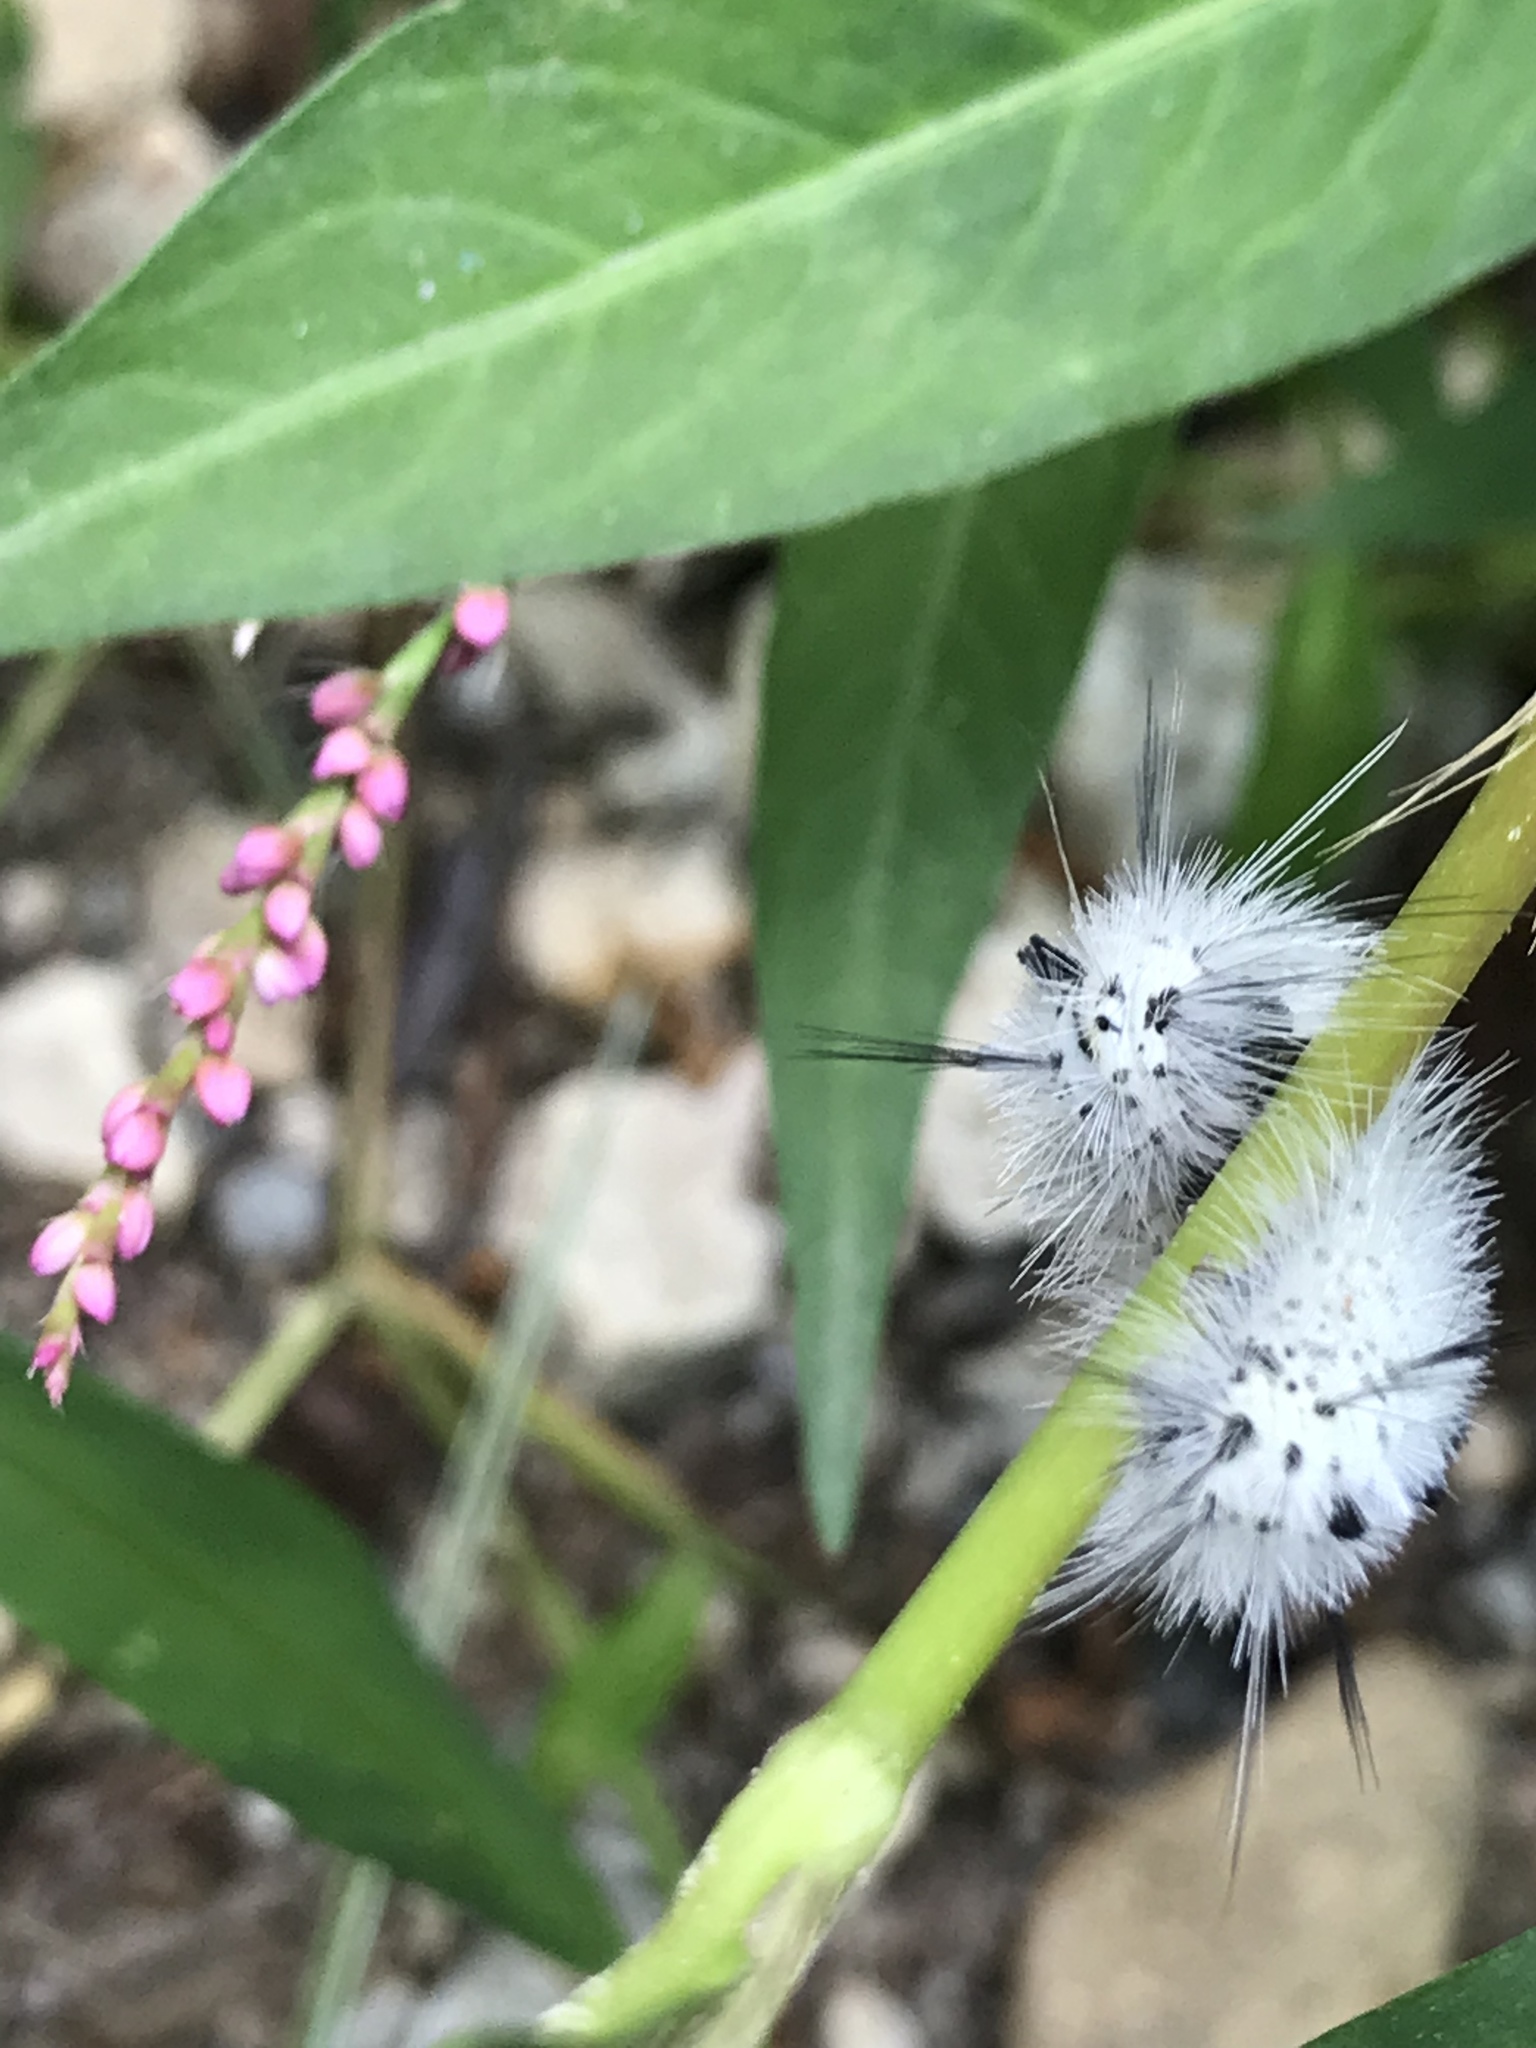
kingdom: Animalia
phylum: Arthropoda
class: Insecta
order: Lepidoptera
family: Erebidae
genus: Lophocampa
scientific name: Lophocampa caryae
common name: Hickory tussock moth
